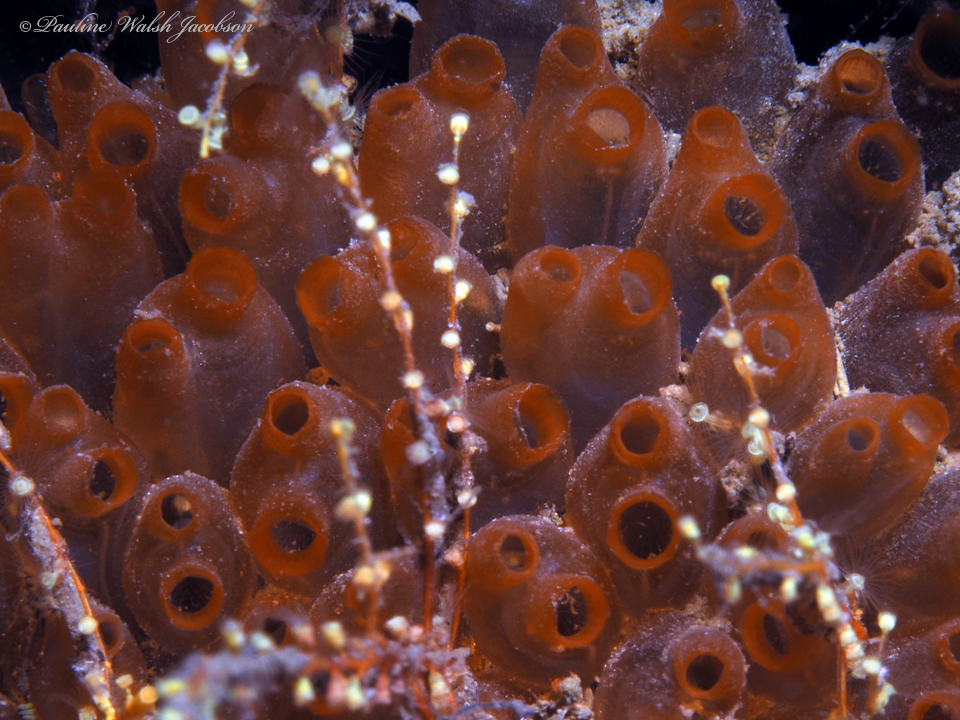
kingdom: Animalia
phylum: Chordata
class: Ascidiacea
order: Phlebobranchia
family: Perophoridae
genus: Ecteinascidia
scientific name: Ecteinascidia turbinata
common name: Mangrove tunicate
